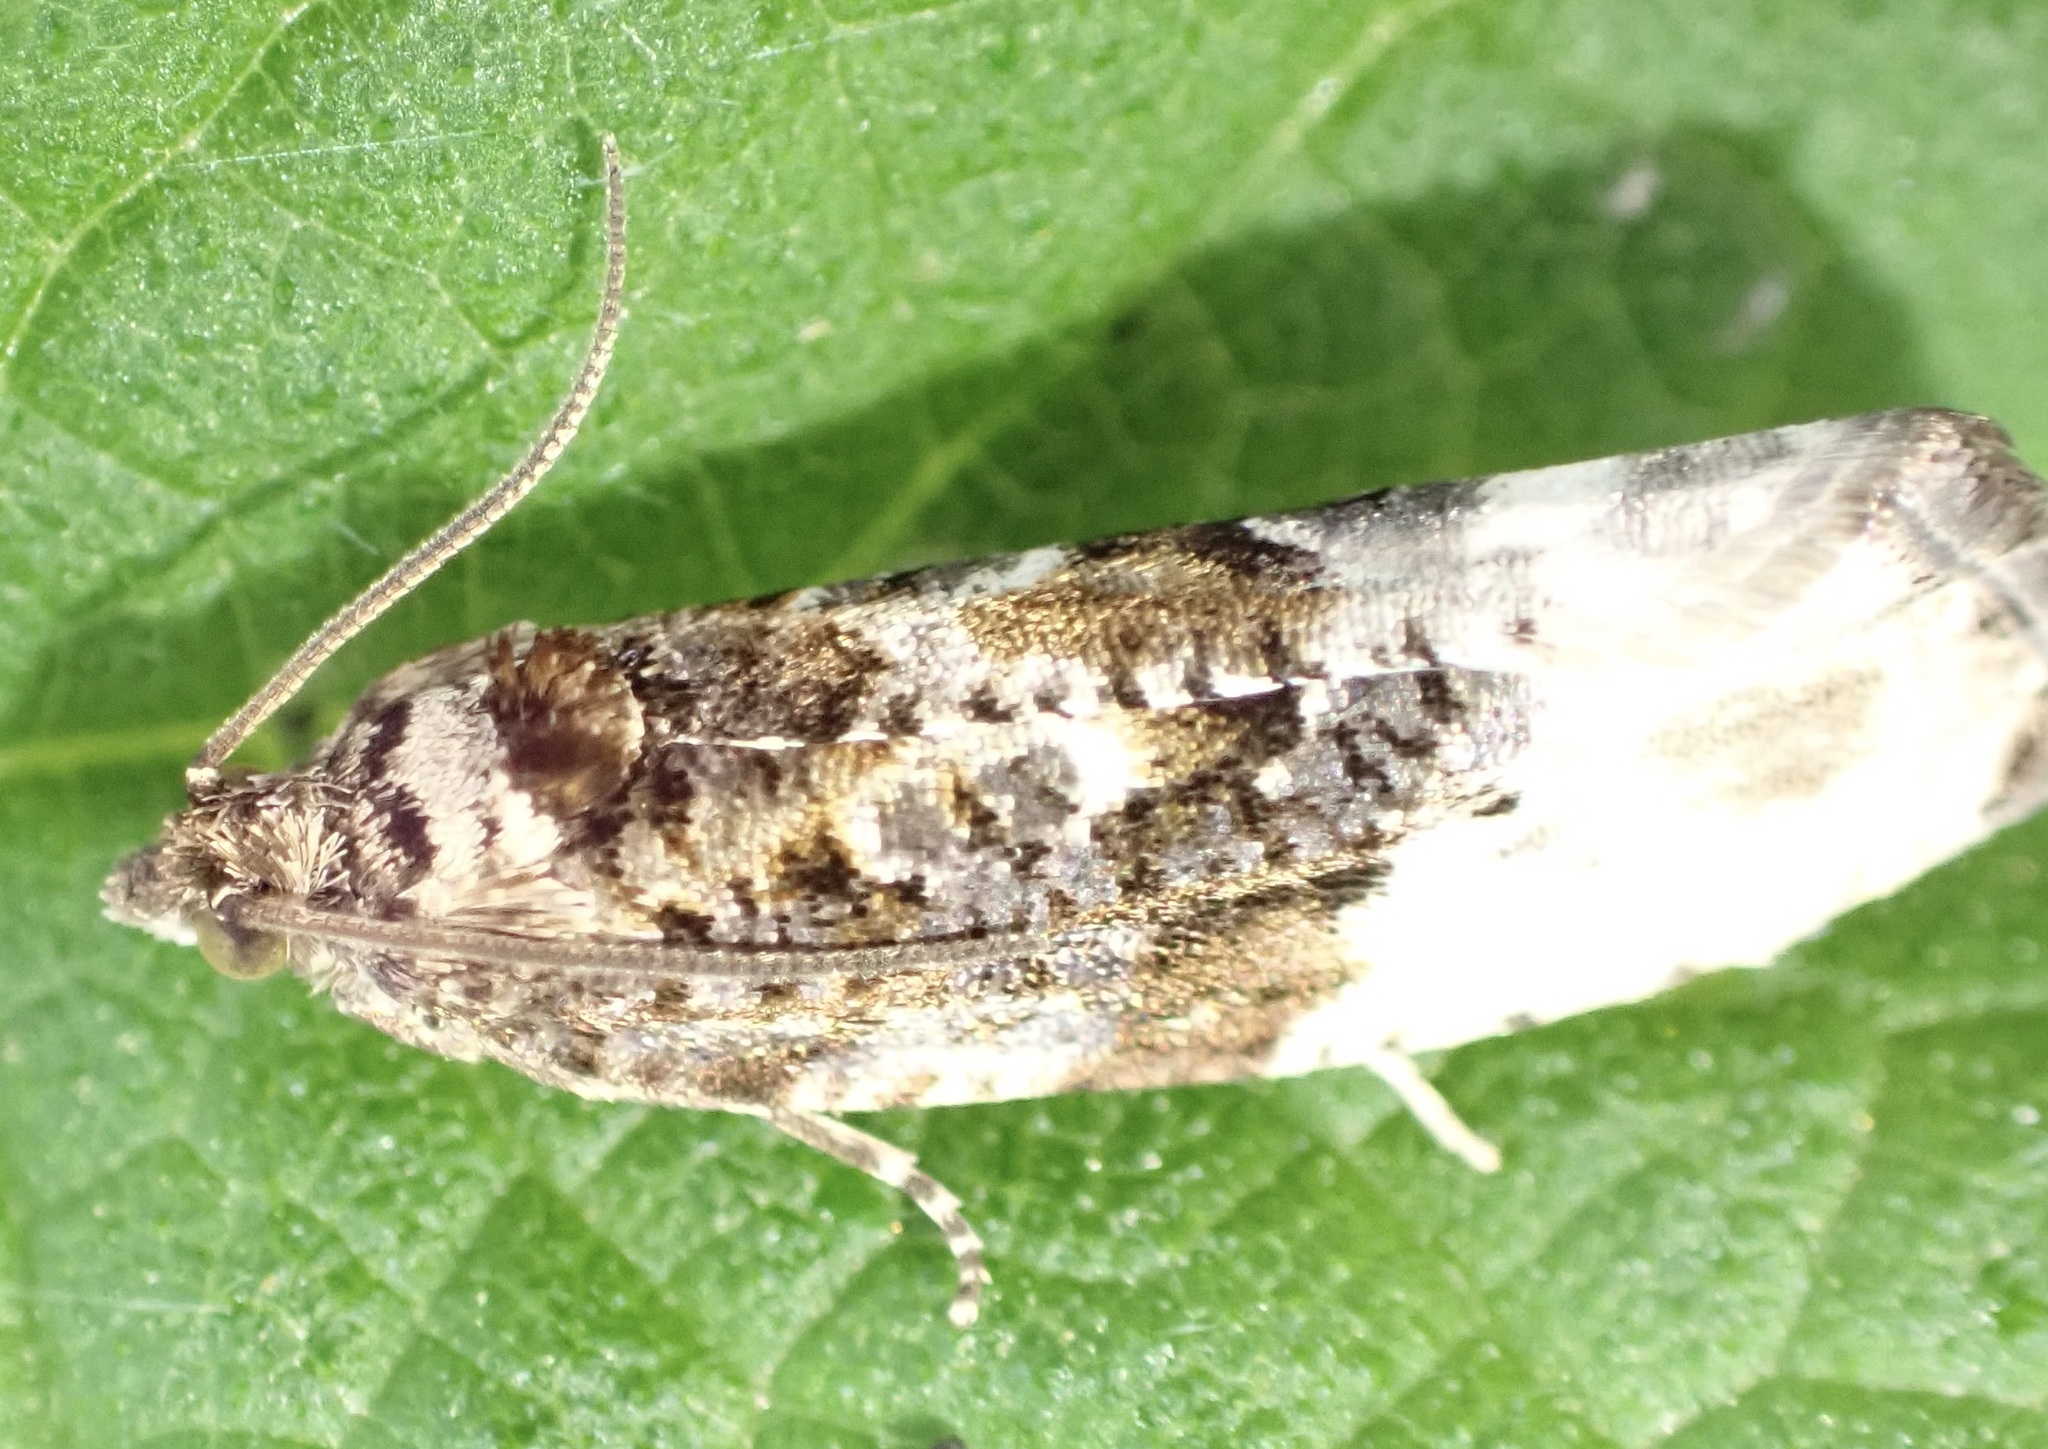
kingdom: Animalia
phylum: Arthropoda
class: Insecta
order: Lepidoptera
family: Tortricidae
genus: Hedya
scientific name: Hedya nubiferana
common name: Marbled orchard tortrix
